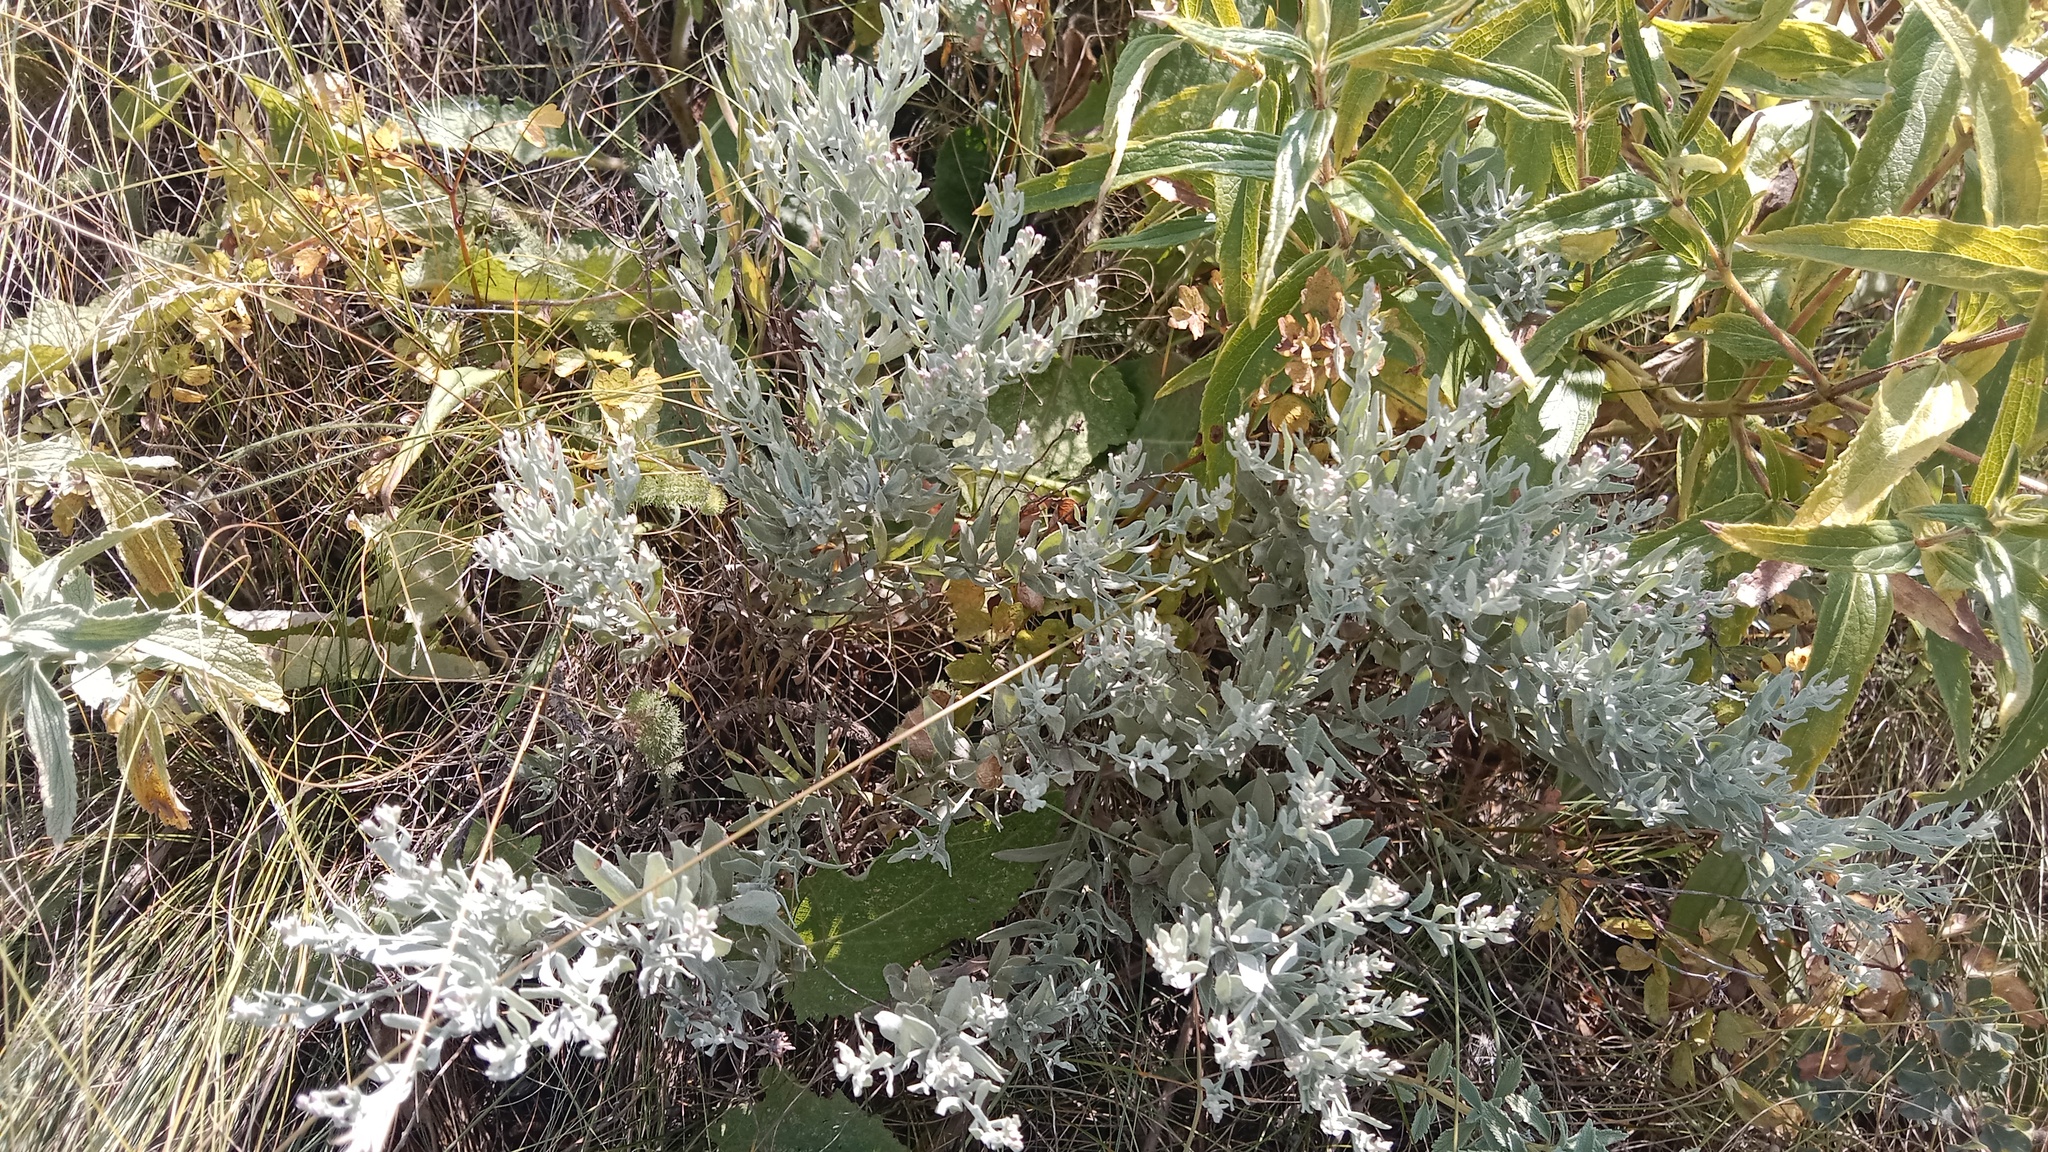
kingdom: Plantae
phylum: Tracheophyta
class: Magnoliopsida
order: Asterales
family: Asteraceae
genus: Galatella
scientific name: Galatella villosa
